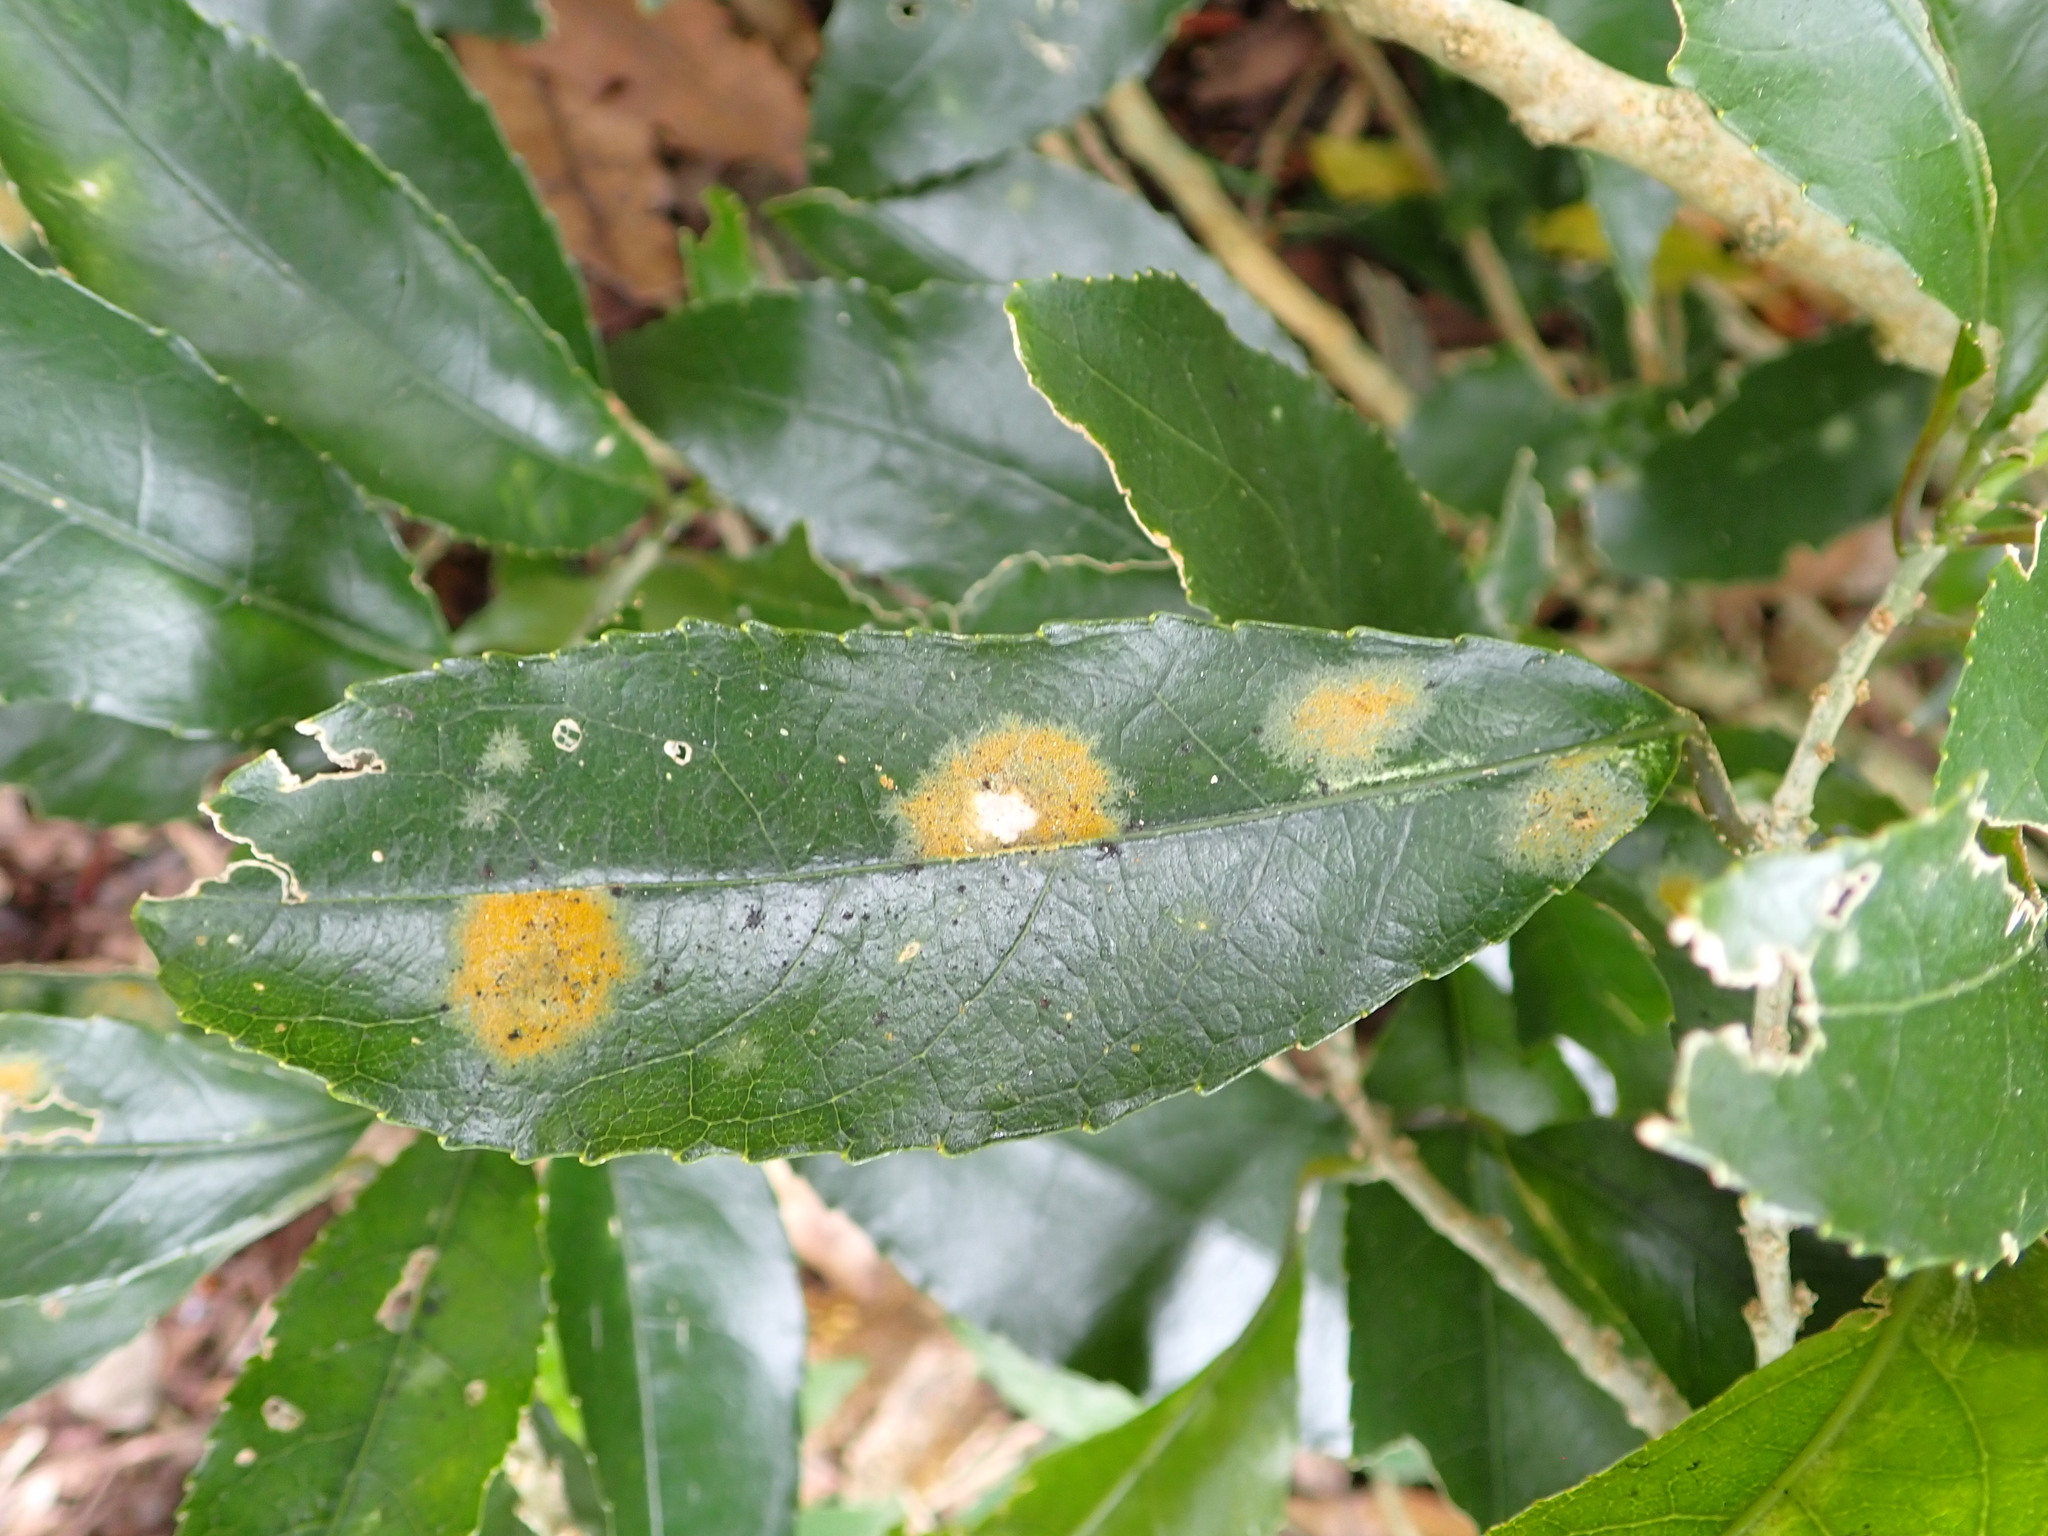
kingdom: Plantae
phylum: Chlorophyta
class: Ulvophyceae
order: Trentepohliales
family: Trentepohliaceae
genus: Cephaleuros
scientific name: Cephaleuros
